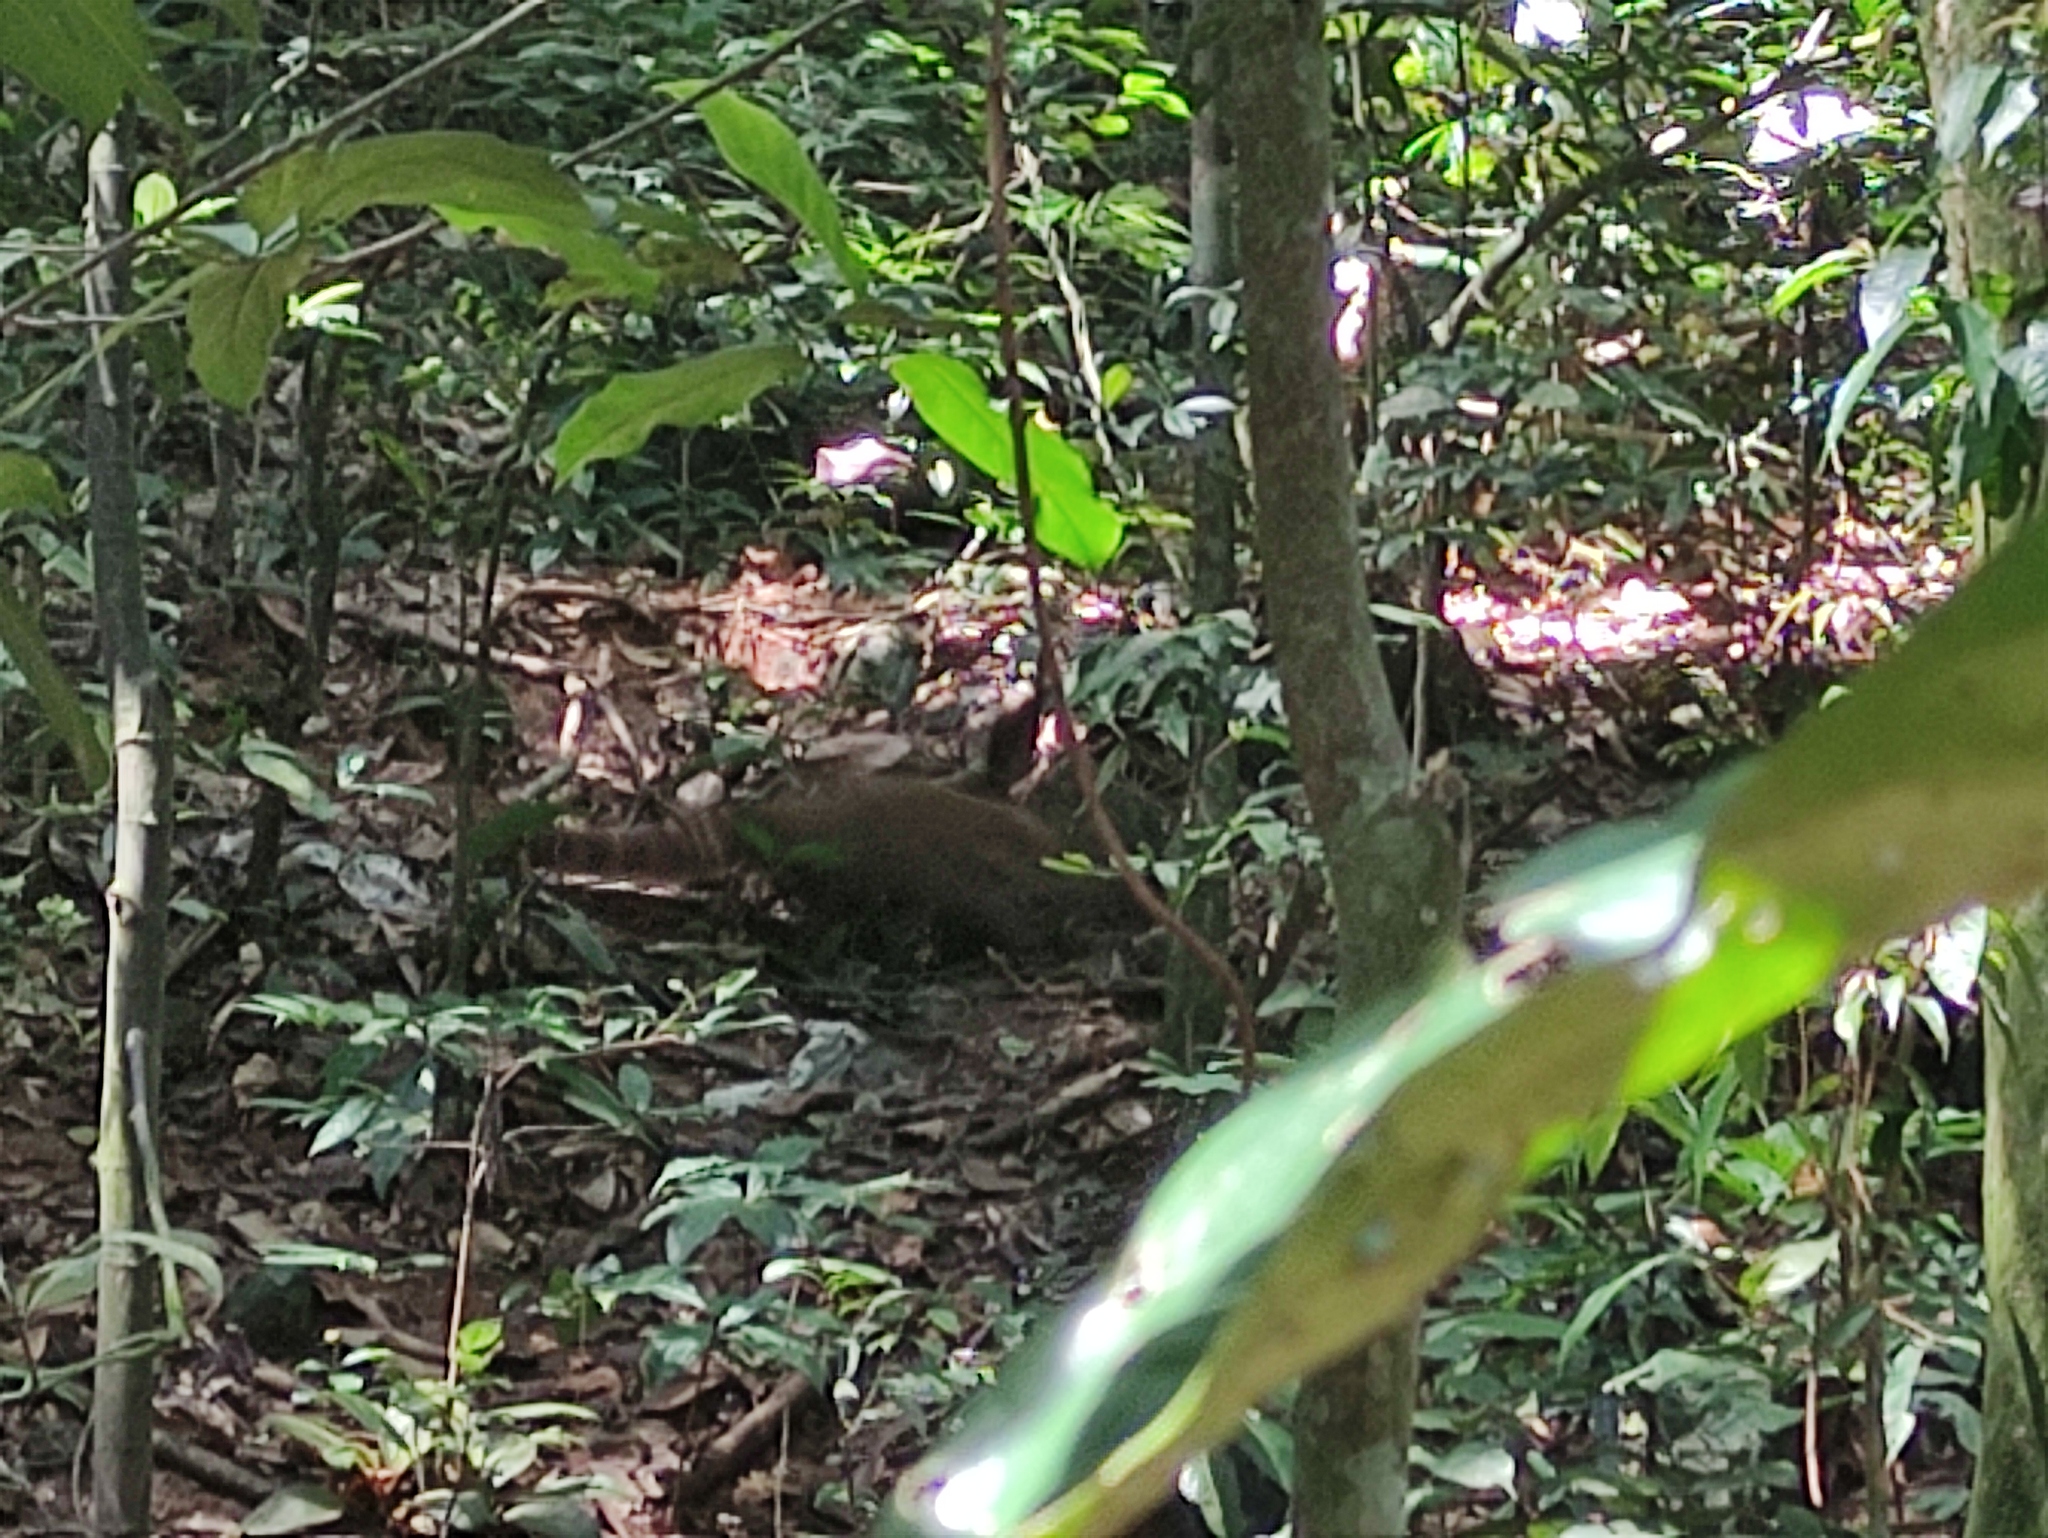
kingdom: Animalia
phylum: Chordata
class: Mammalia
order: Carnivora
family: Procyonidae
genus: Nasua
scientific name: Nasua nasua
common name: South american coati
